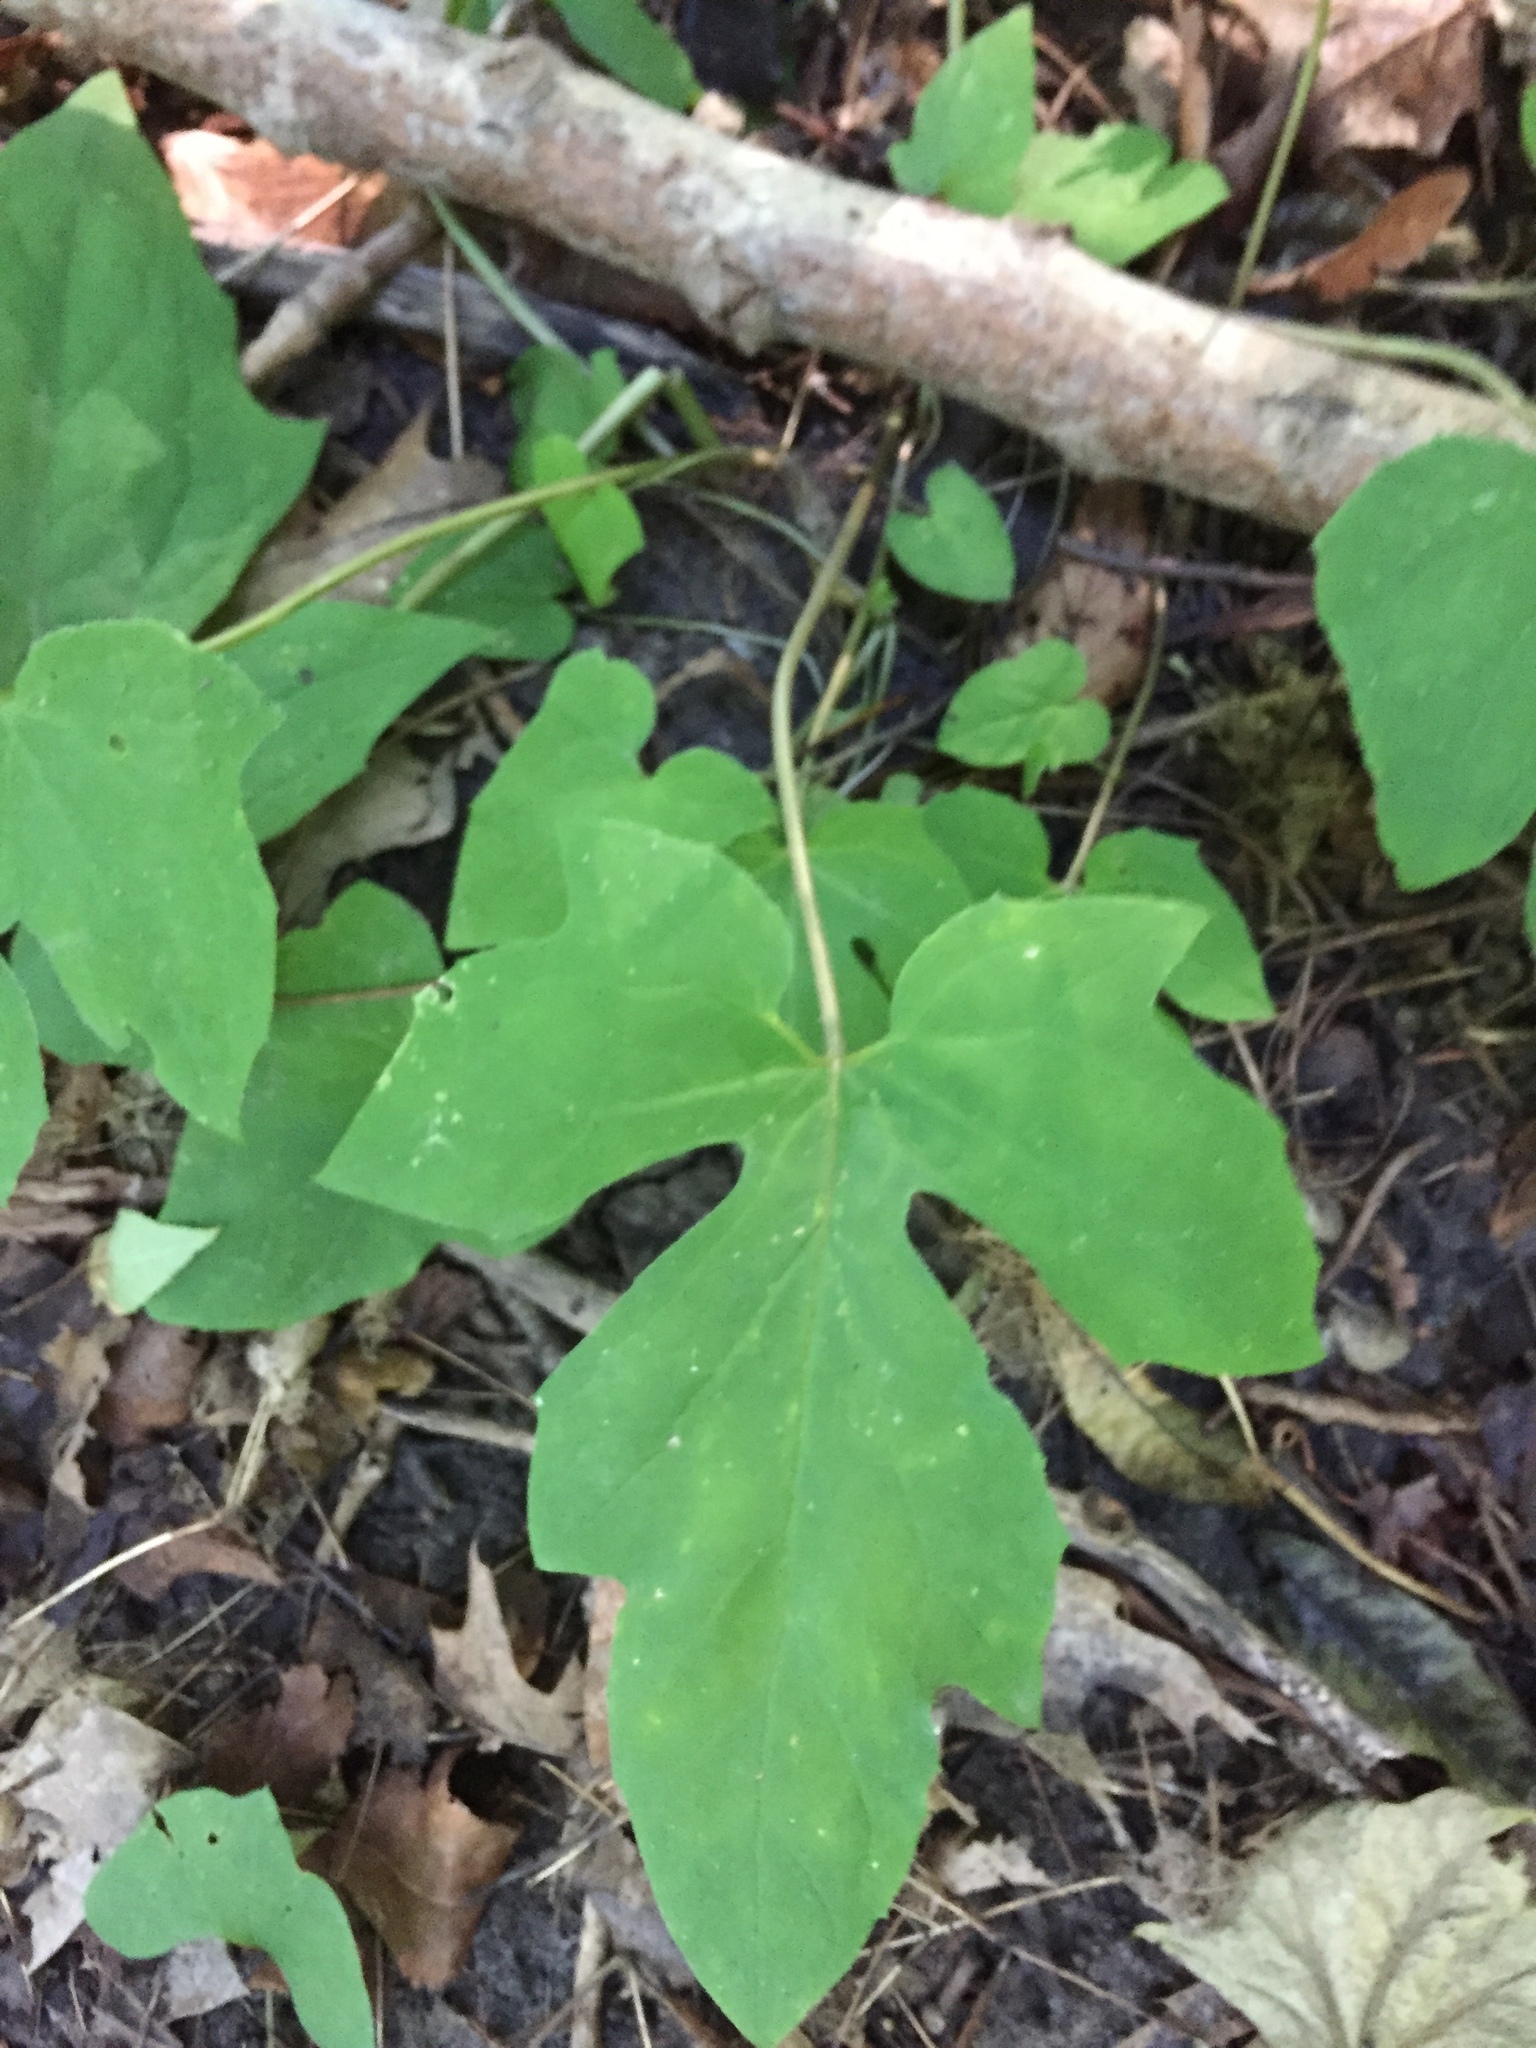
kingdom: Plantae
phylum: Tracheophyta
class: Magnoliopsida
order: Asterales
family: Asteraceae
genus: Nabalus
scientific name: Nabalus altissima
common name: Tall rattlesnakeroot
